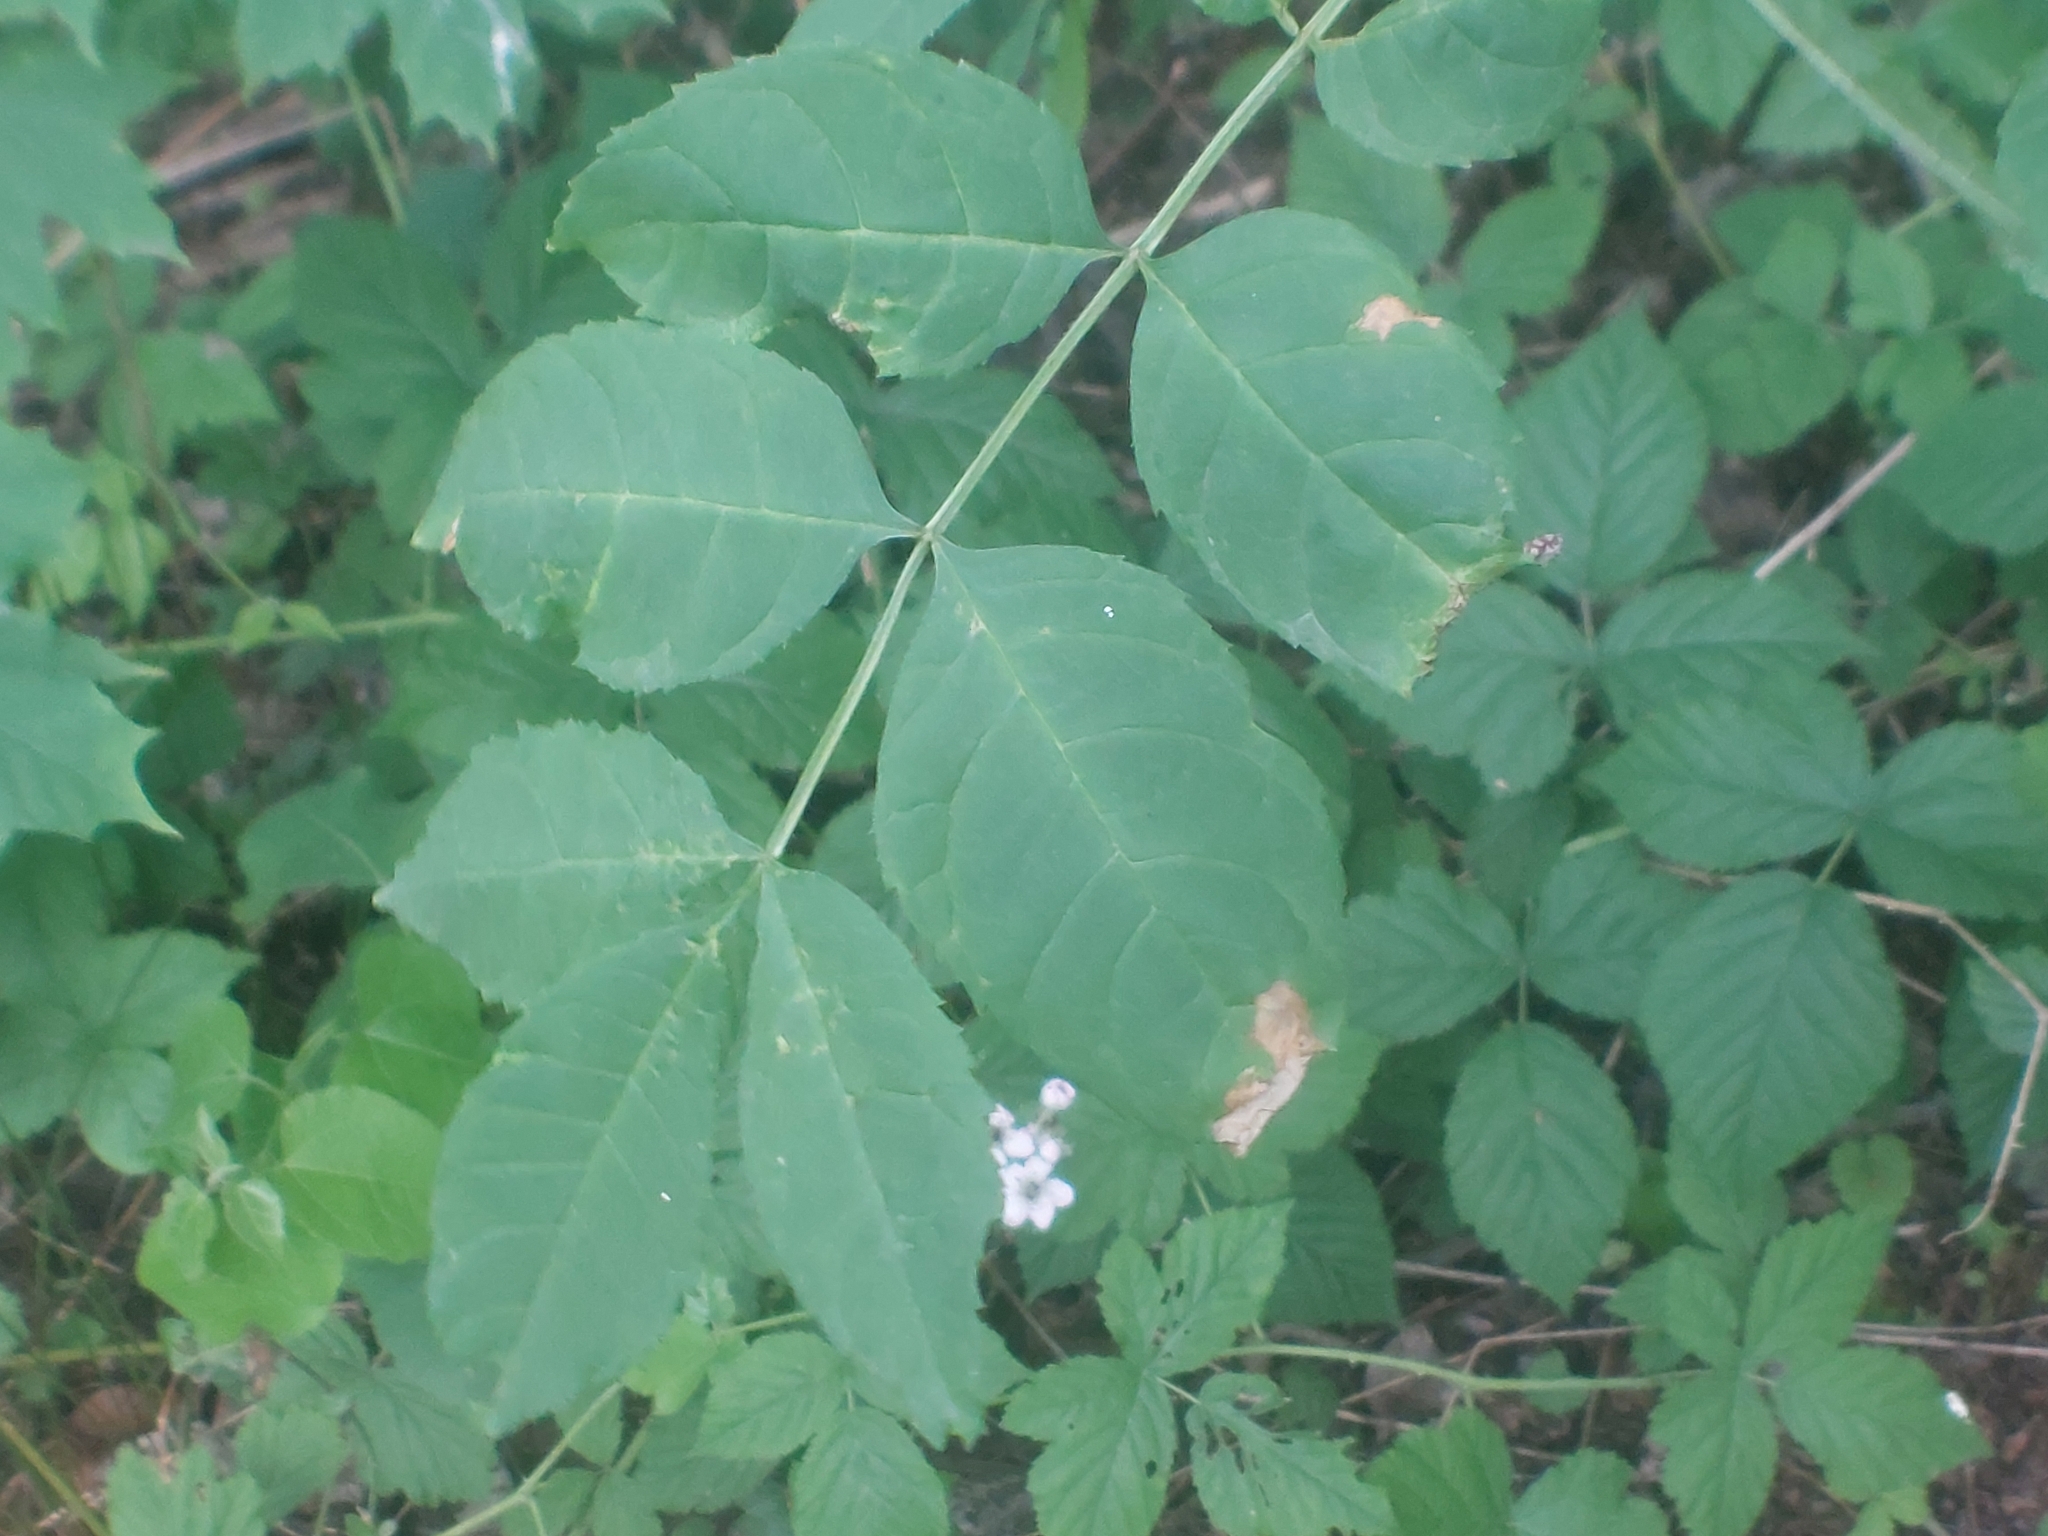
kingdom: Plantae
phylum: Tracheophyta
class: Magnoliopsida
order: Lamiales
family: Oleaceae
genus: Fraxinus
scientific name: Fraxinus excelsior
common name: European ash
